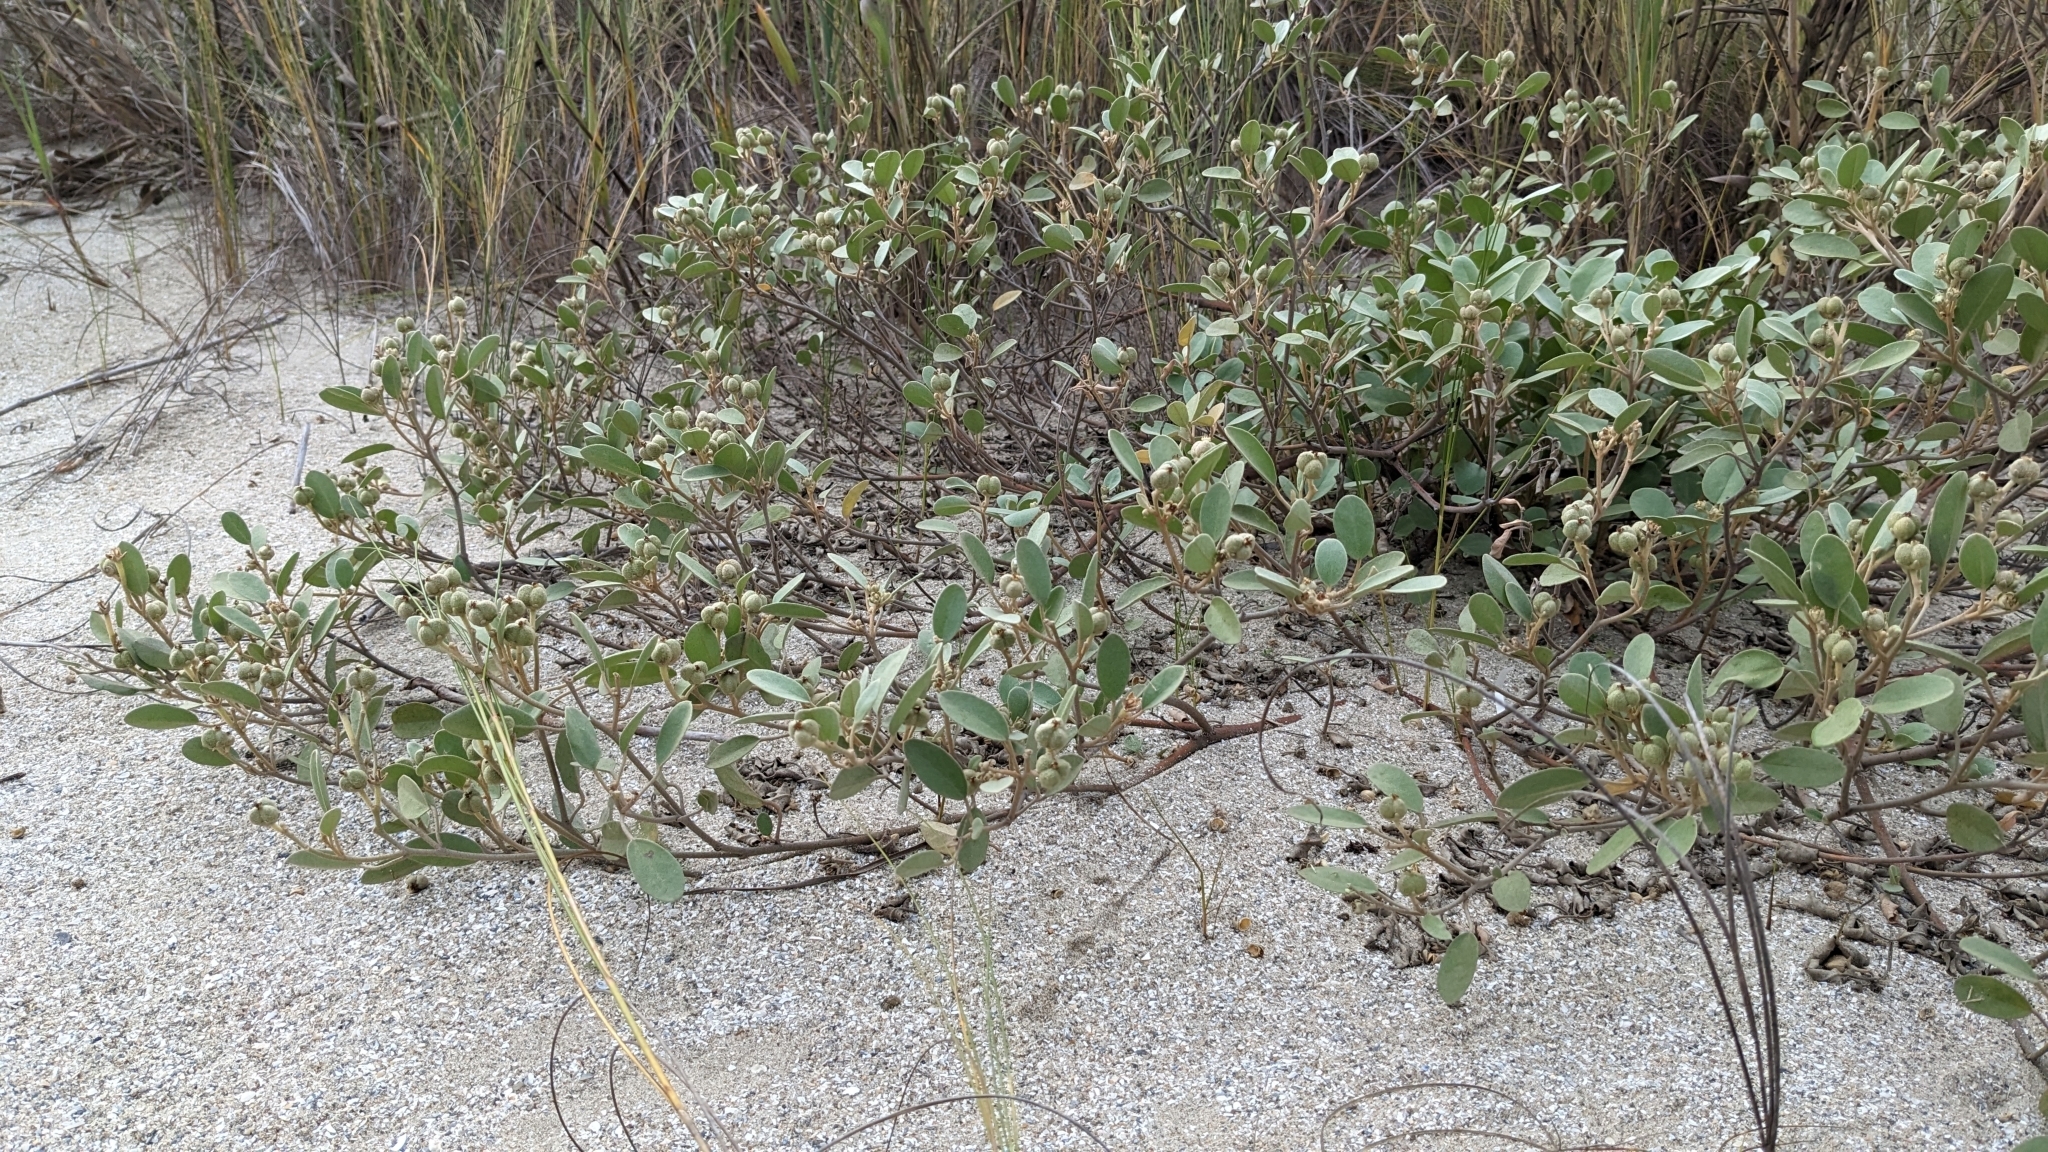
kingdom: Plantae
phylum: Tracheophyta
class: Magnoliopsida
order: Malpighiales
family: Euphorbiaceae
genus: Croton
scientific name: Croton punctatus
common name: Beach-tea
